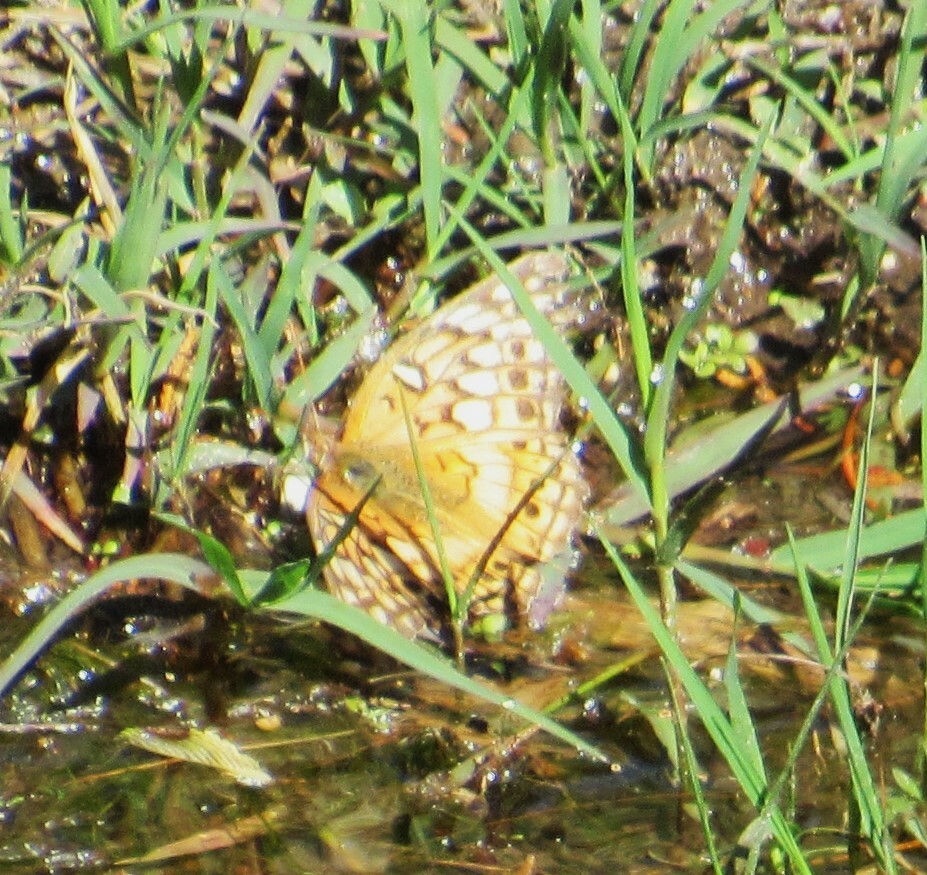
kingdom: Animalia
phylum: Arthropoda
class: Insecta
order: Lepidoptera
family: Nymphalidae
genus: Euptoieta
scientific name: Euptoieta claudia
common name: Variegated fritillary
